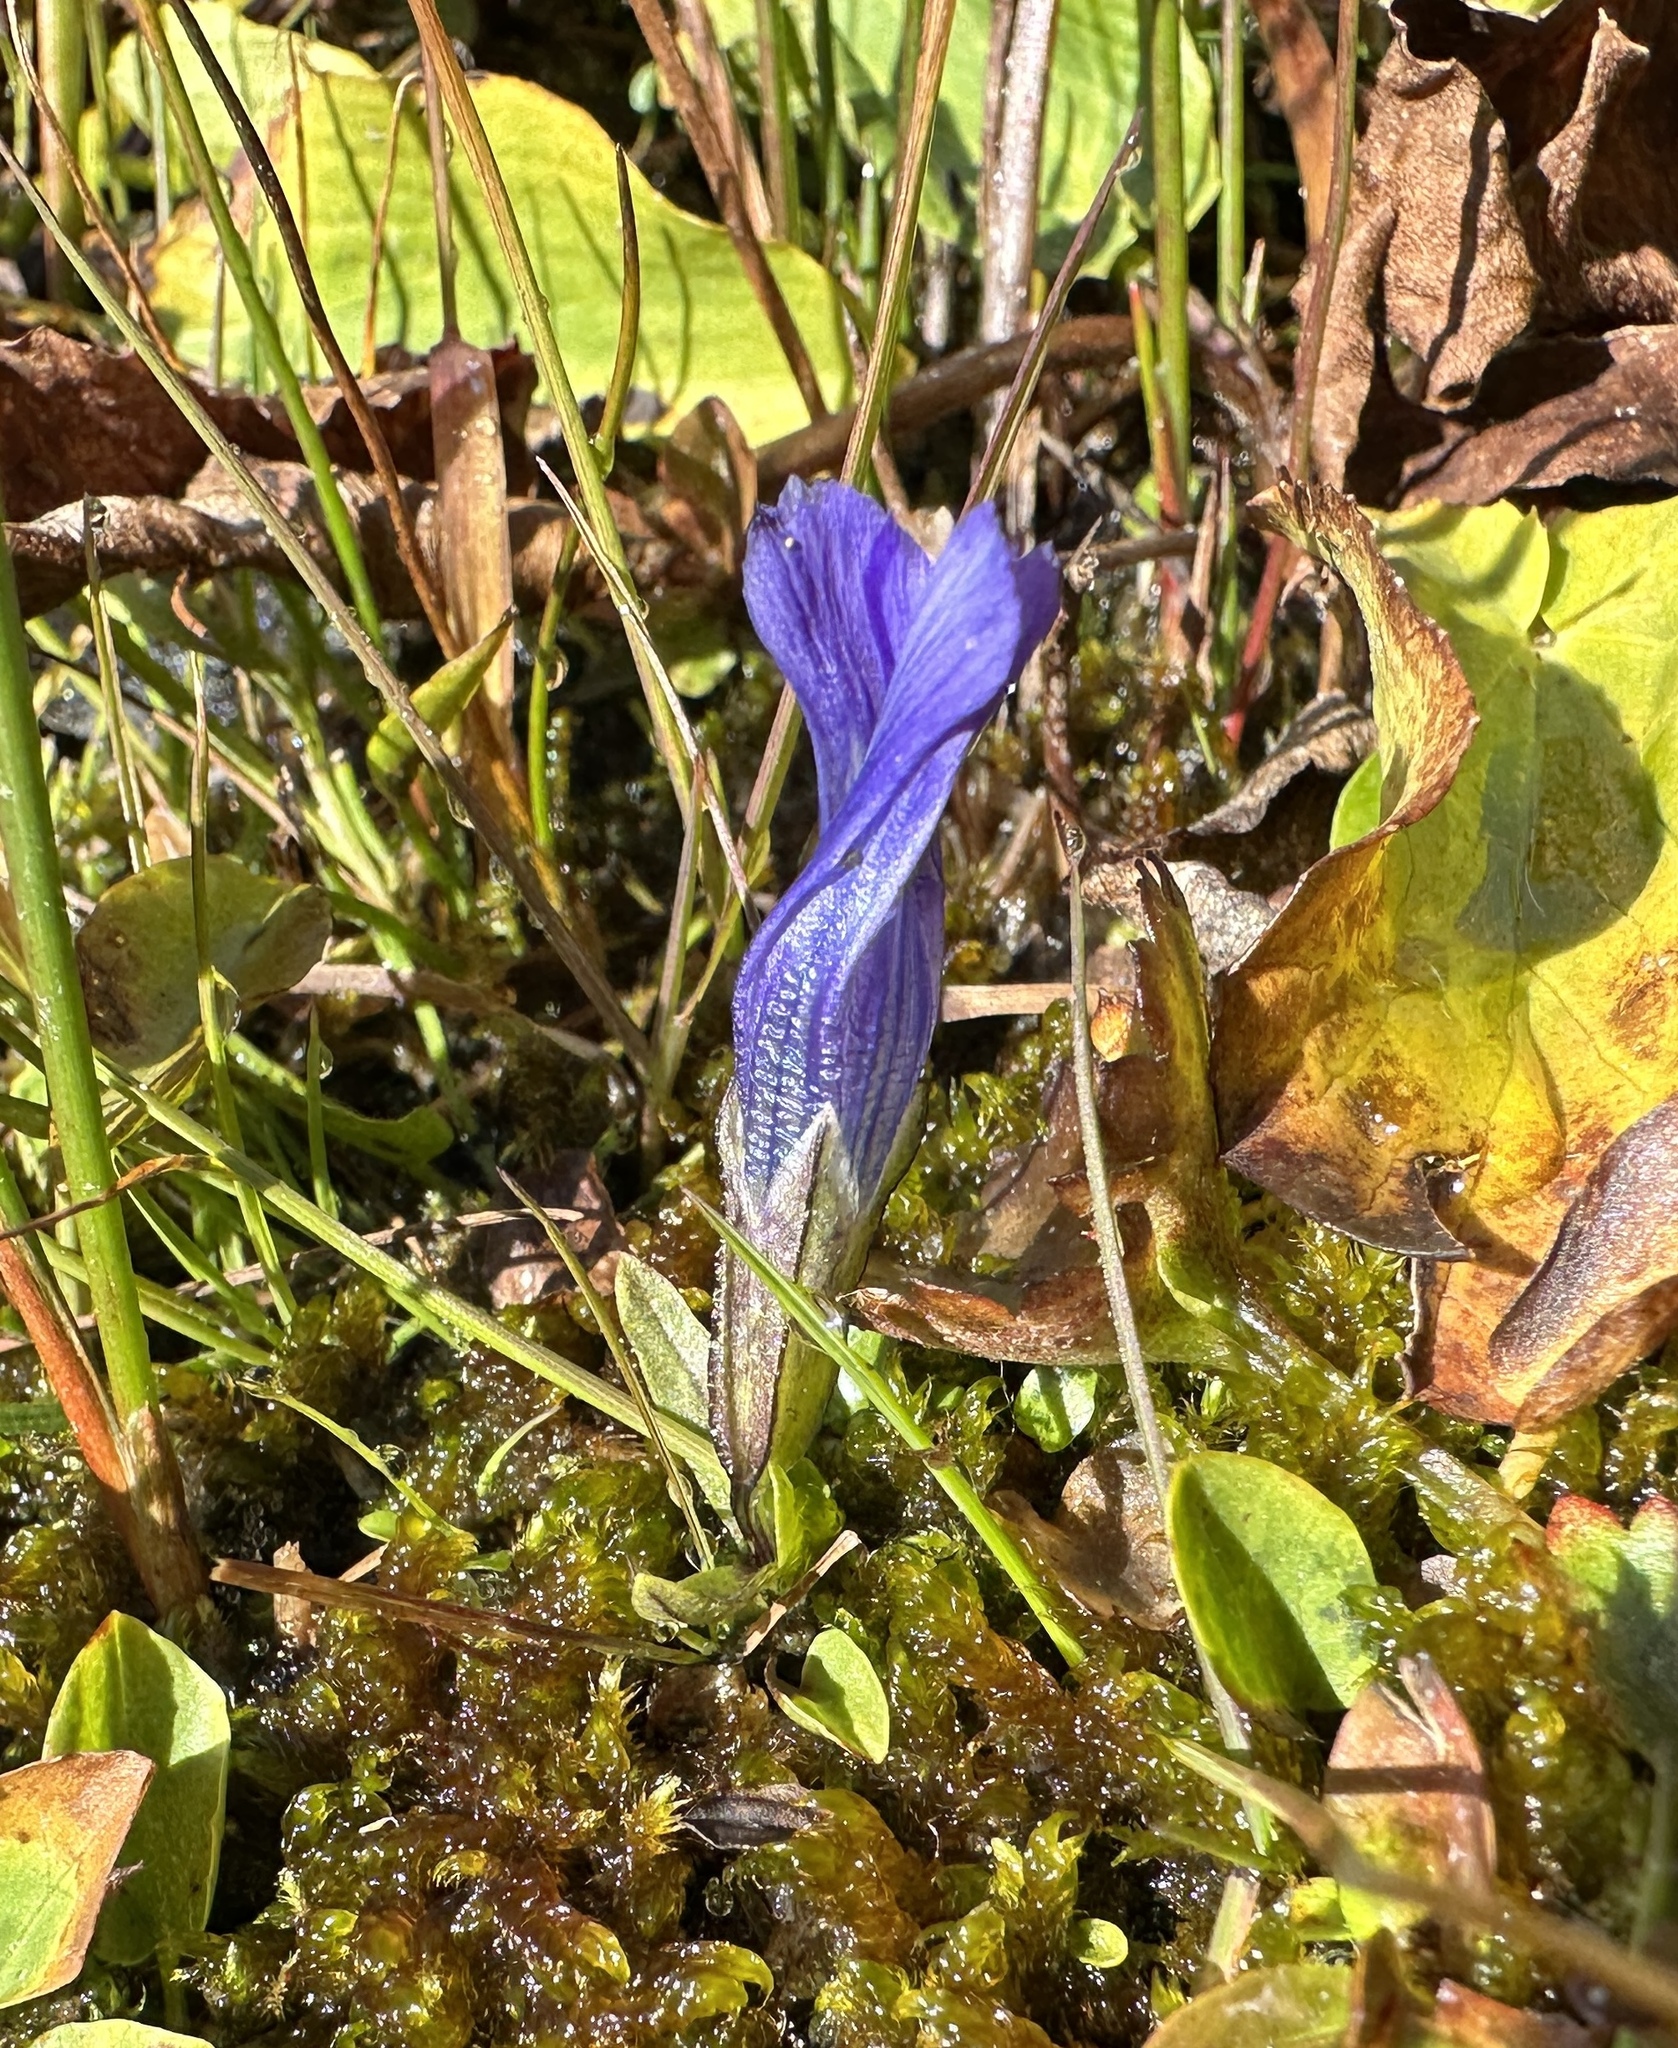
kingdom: Plantae
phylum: Tracheophyta
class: Magnoliopsida
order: Gentianales
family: Gentianaceae
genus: Gentianopsis
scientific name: Gentianopsis thermalis
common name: Rocky mountain fringed-gentian
